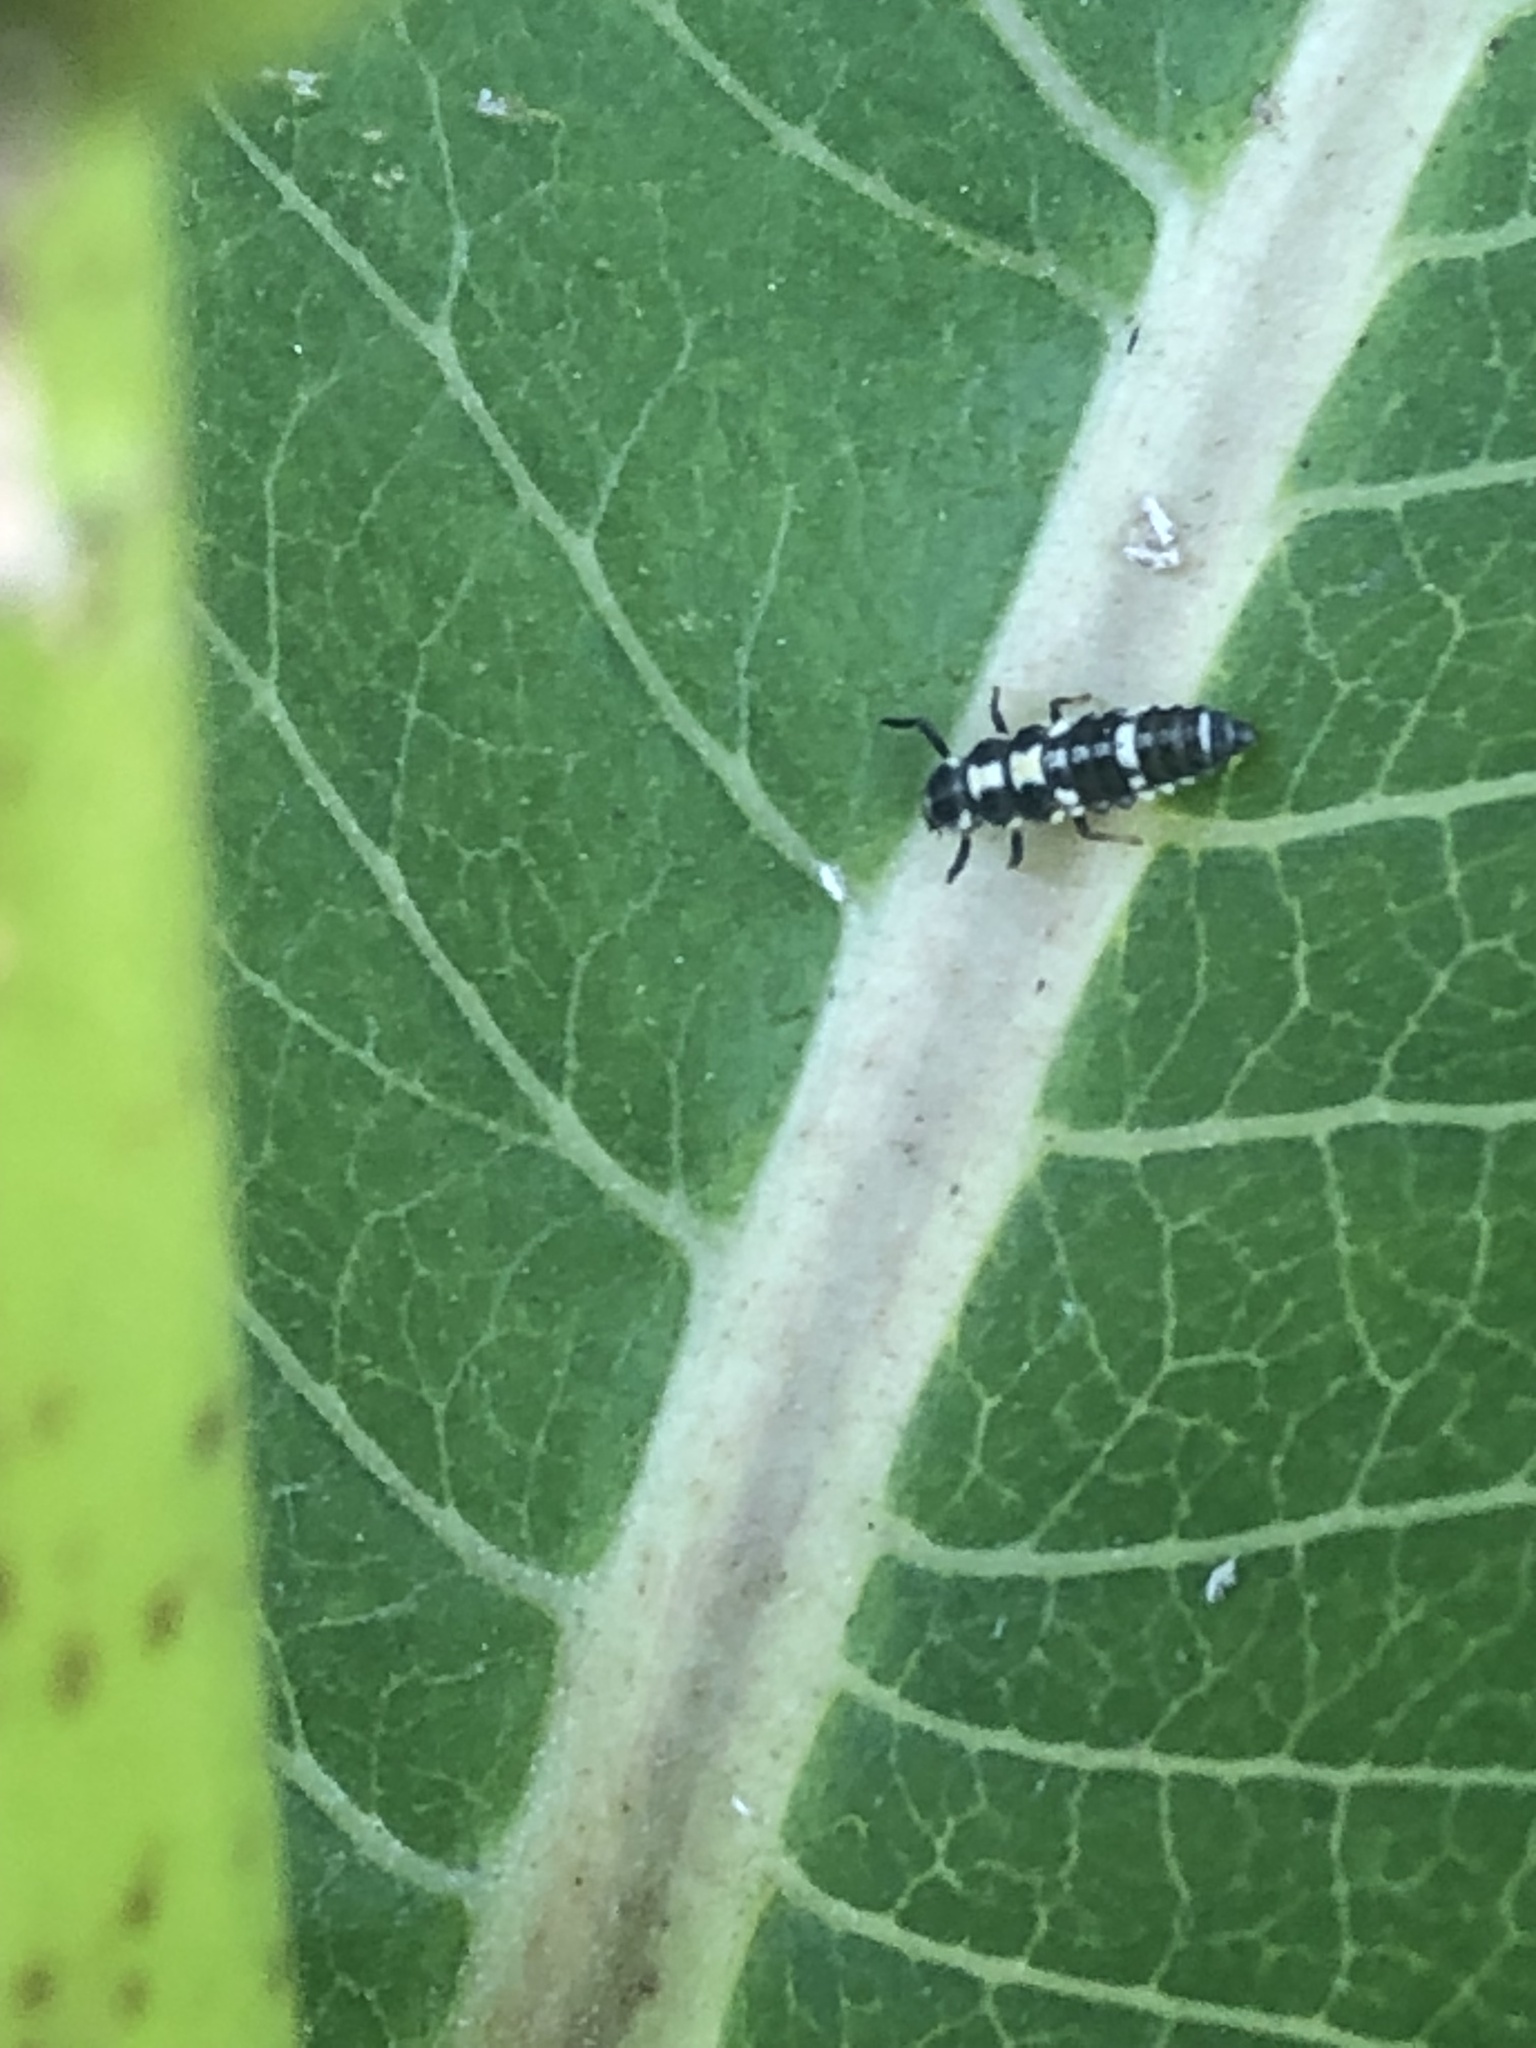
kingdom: Animalia
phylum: Arthropoda
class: Insecta
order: Coleoptera
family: Coccinellidae
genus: Propylaea
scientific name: Propylaea quatuordecimpunctata
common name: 14-spotted ladybird beetle
